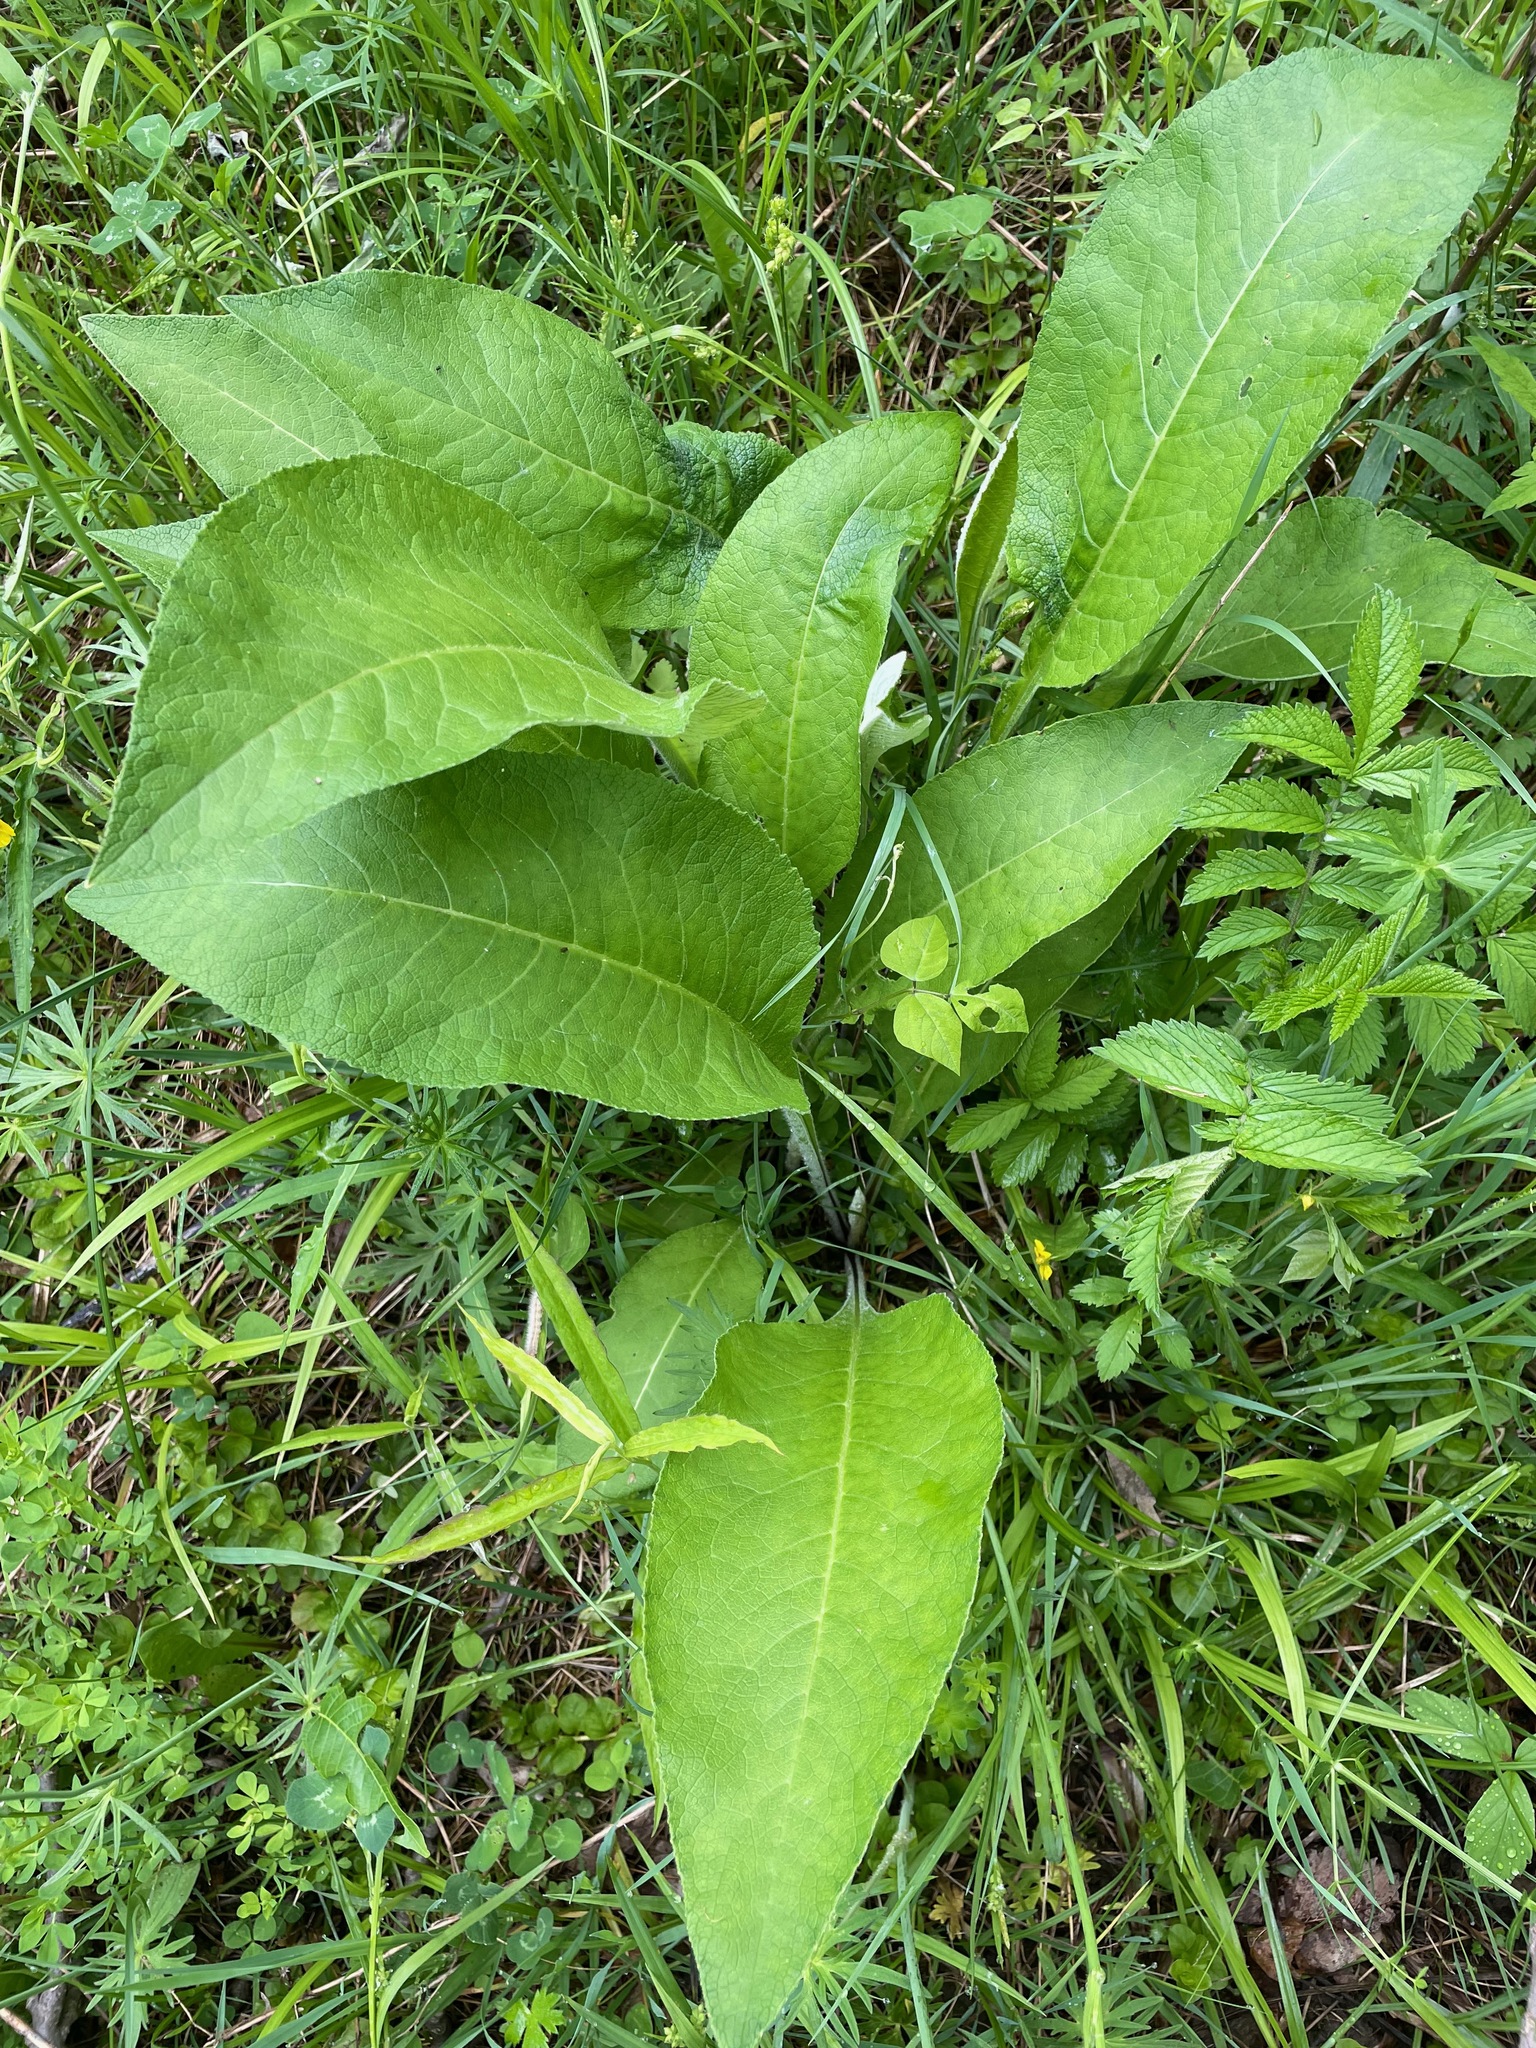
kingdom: Plantae
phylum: Tracheophyta
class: Magnoliopsida
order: Asterales
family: Asteraceae
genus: Inula
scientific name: Inula helenium
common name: Elecampane
